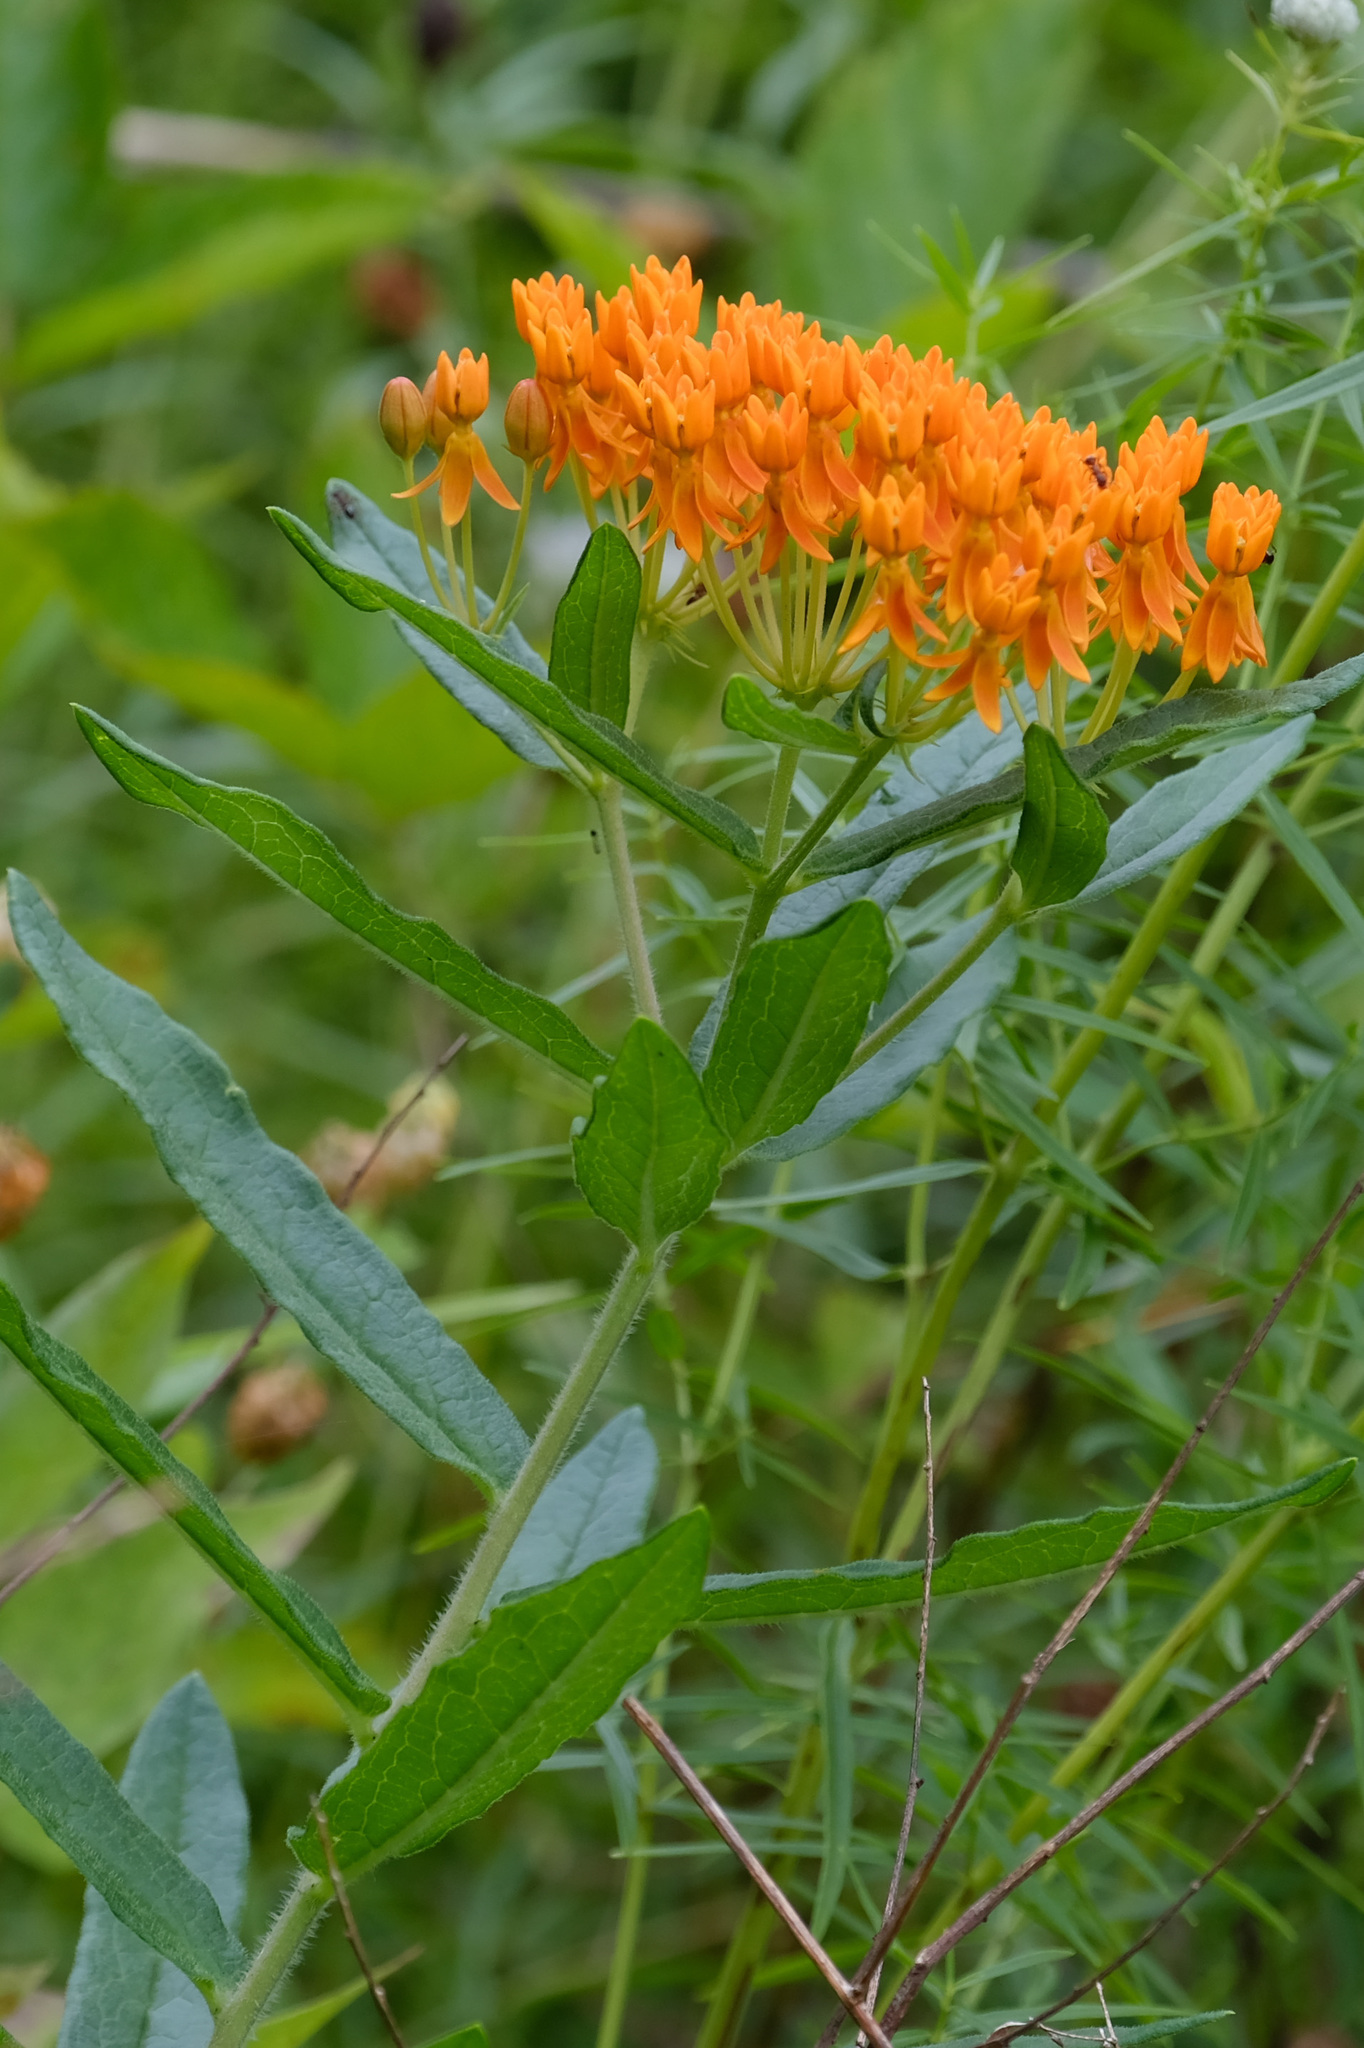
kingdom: Plantae
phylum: Tracheophyta
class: Magnoliopsida
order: Gentianales
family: Apocynaceae
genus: Asclepias
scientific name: Asclepias tuberosa
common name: Butterfly milkweed
